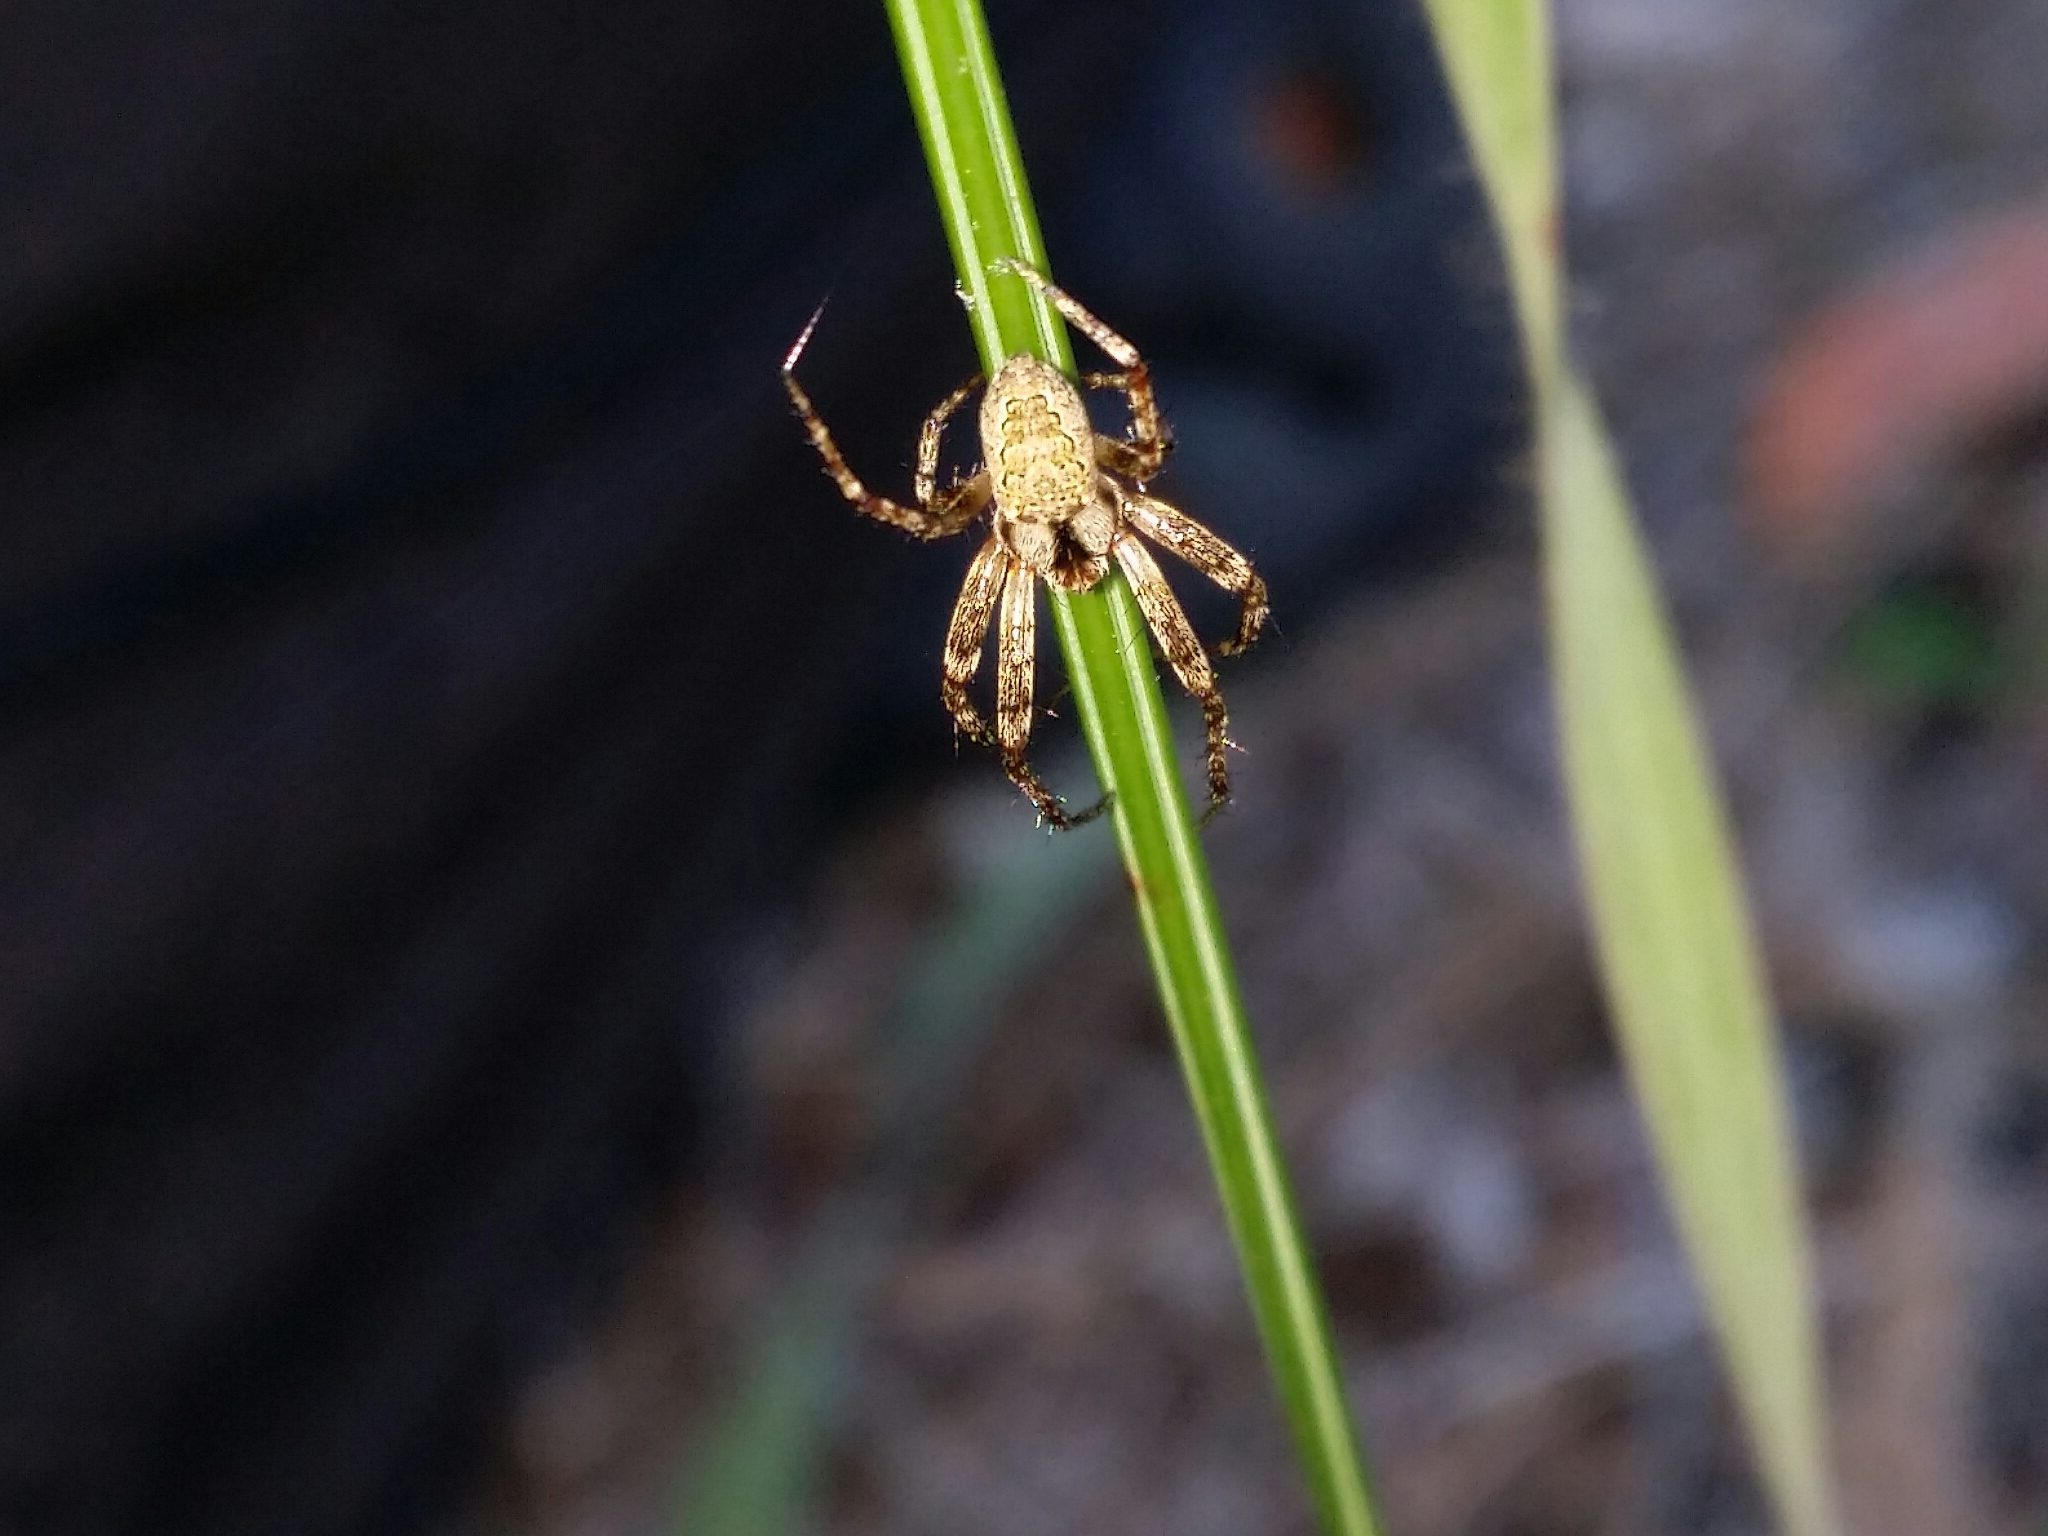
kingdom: Animalia
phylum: Arthropoda
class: Arachnida
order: Araneae
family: Araneidae
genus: Plebs
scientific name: Plebs cyphoxis
